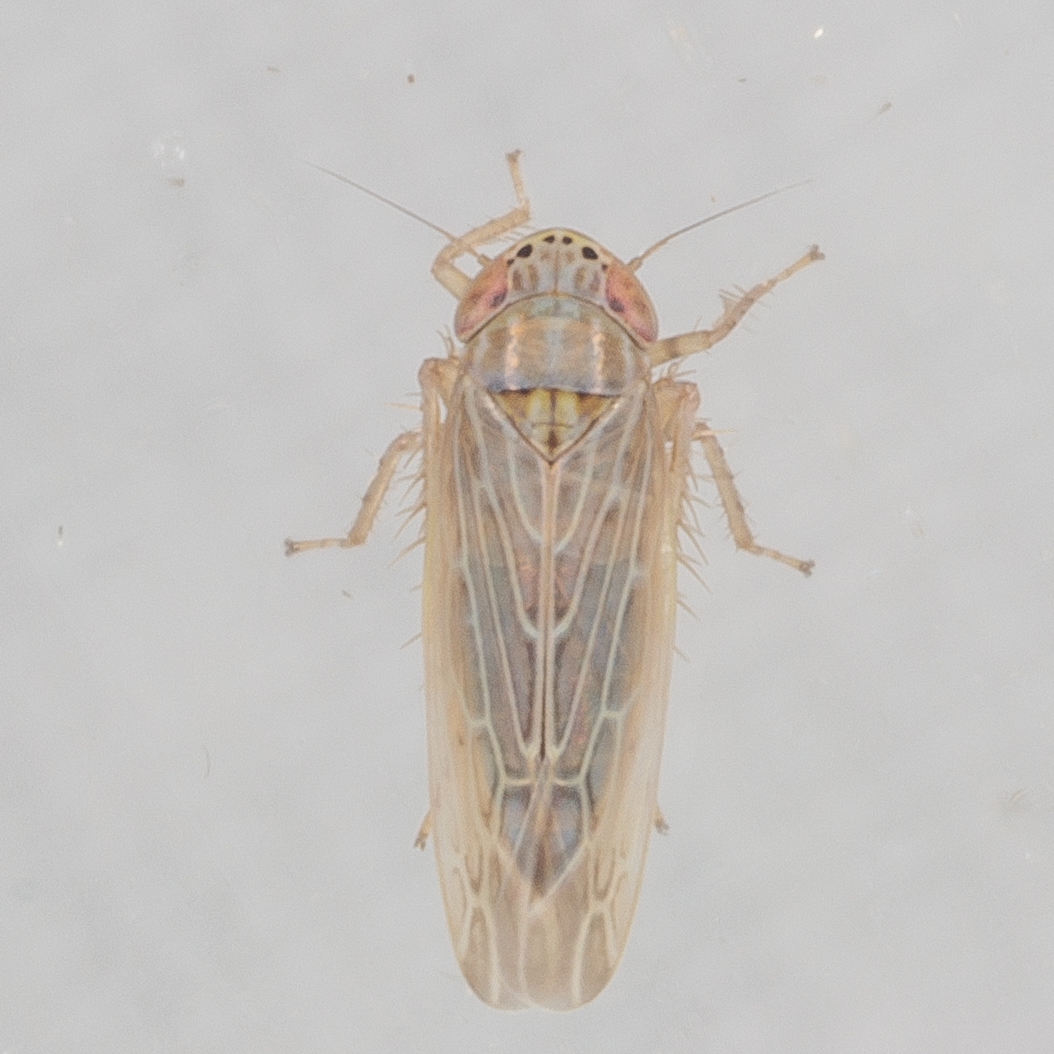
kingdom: Animalia
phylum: Arthropoda
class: Insecta
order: Hemiptera
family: Cicadellidae
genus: Graminella
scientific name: Graminella sonora
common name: Lesser lawn leafhopper
